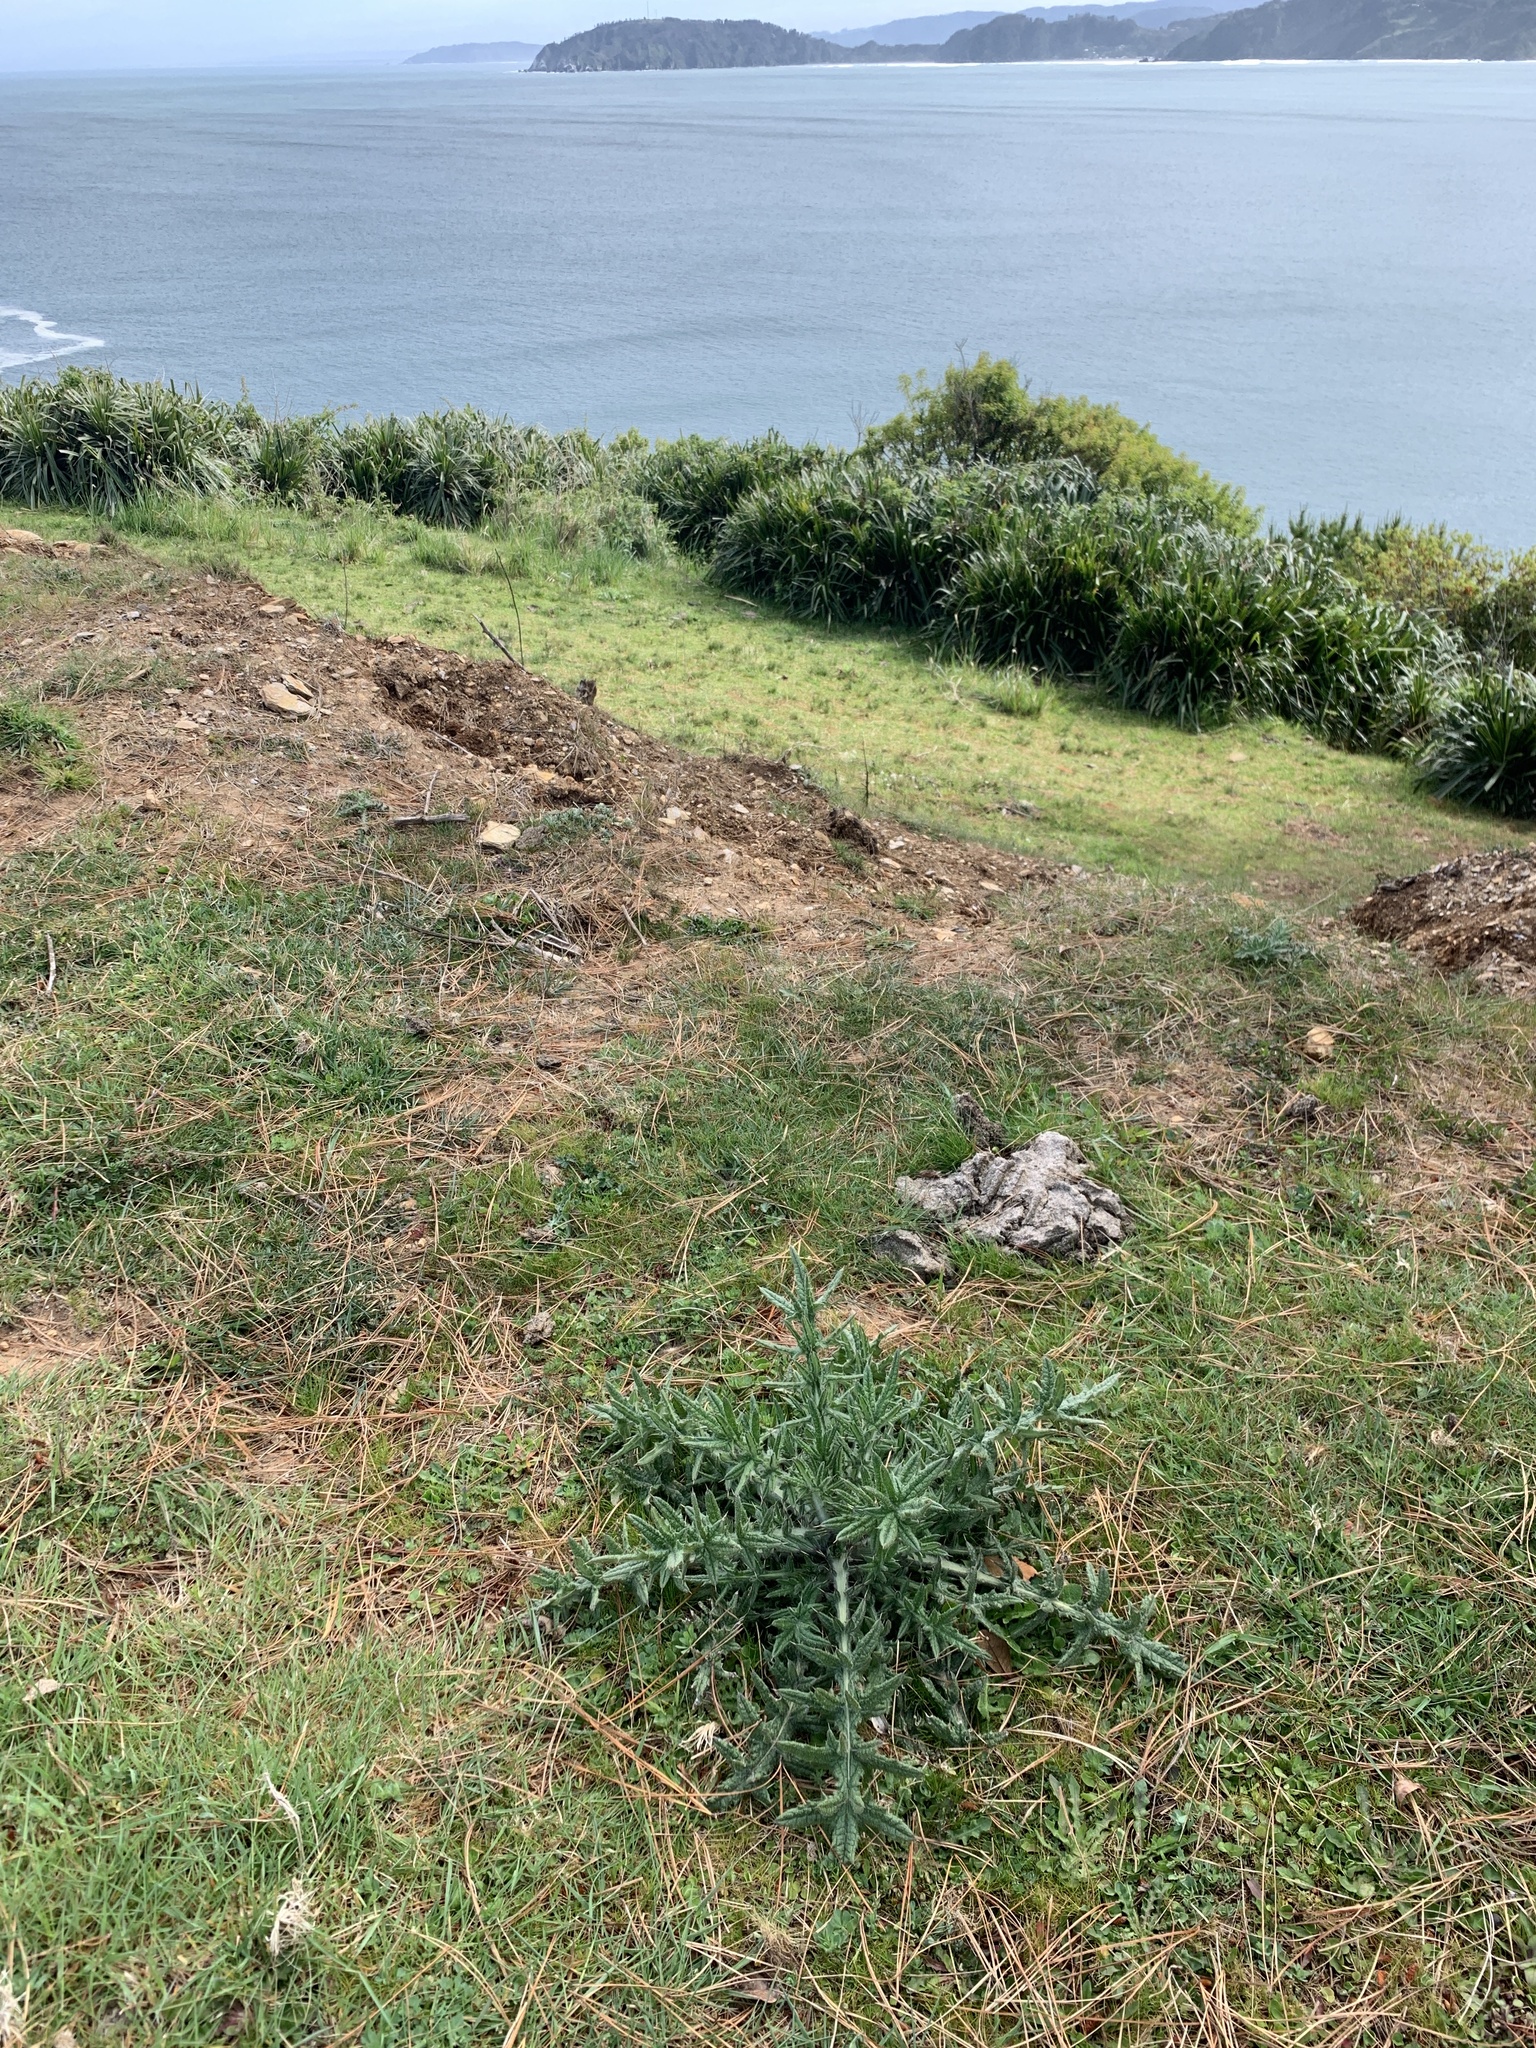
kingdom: Plantae
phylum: Tracheophyta
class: Magnoliopsida
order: Asterales
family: Asteraceae
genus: Cirsium
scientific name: Cirsium vulgare
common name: Bull thistle
